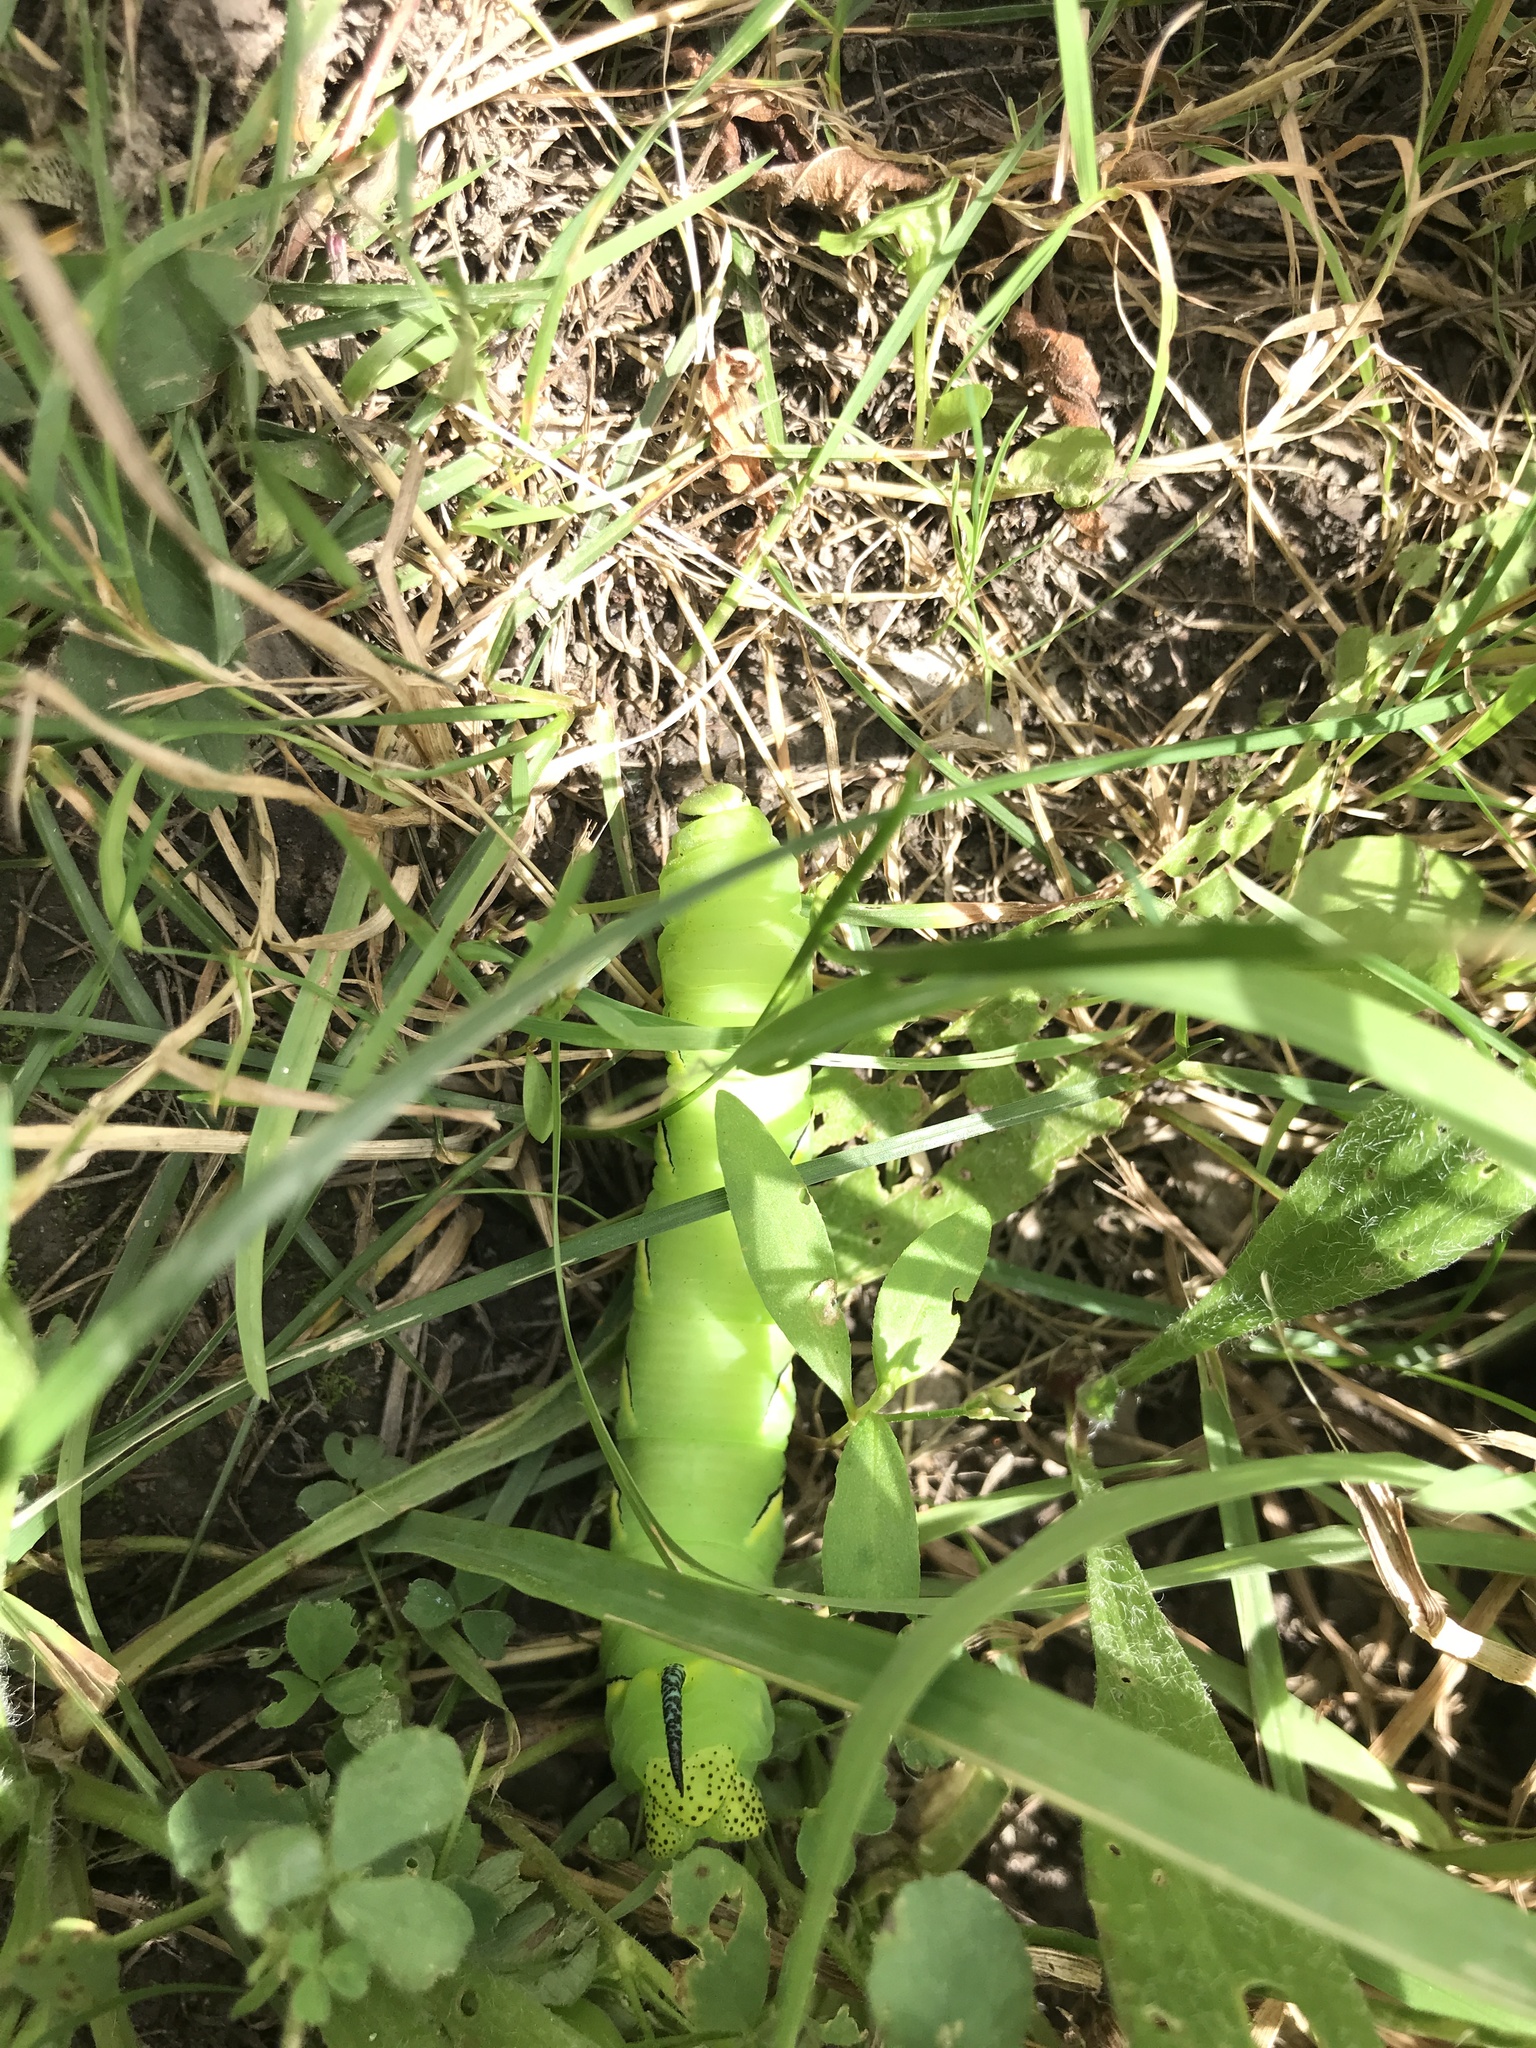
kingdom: Animalia
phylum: Arthropoda
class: Insecta
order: Lepidoptera
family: Sphingidae
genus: Sphinx
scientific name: Sphinx kalmiae
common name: Laurel sphinx
